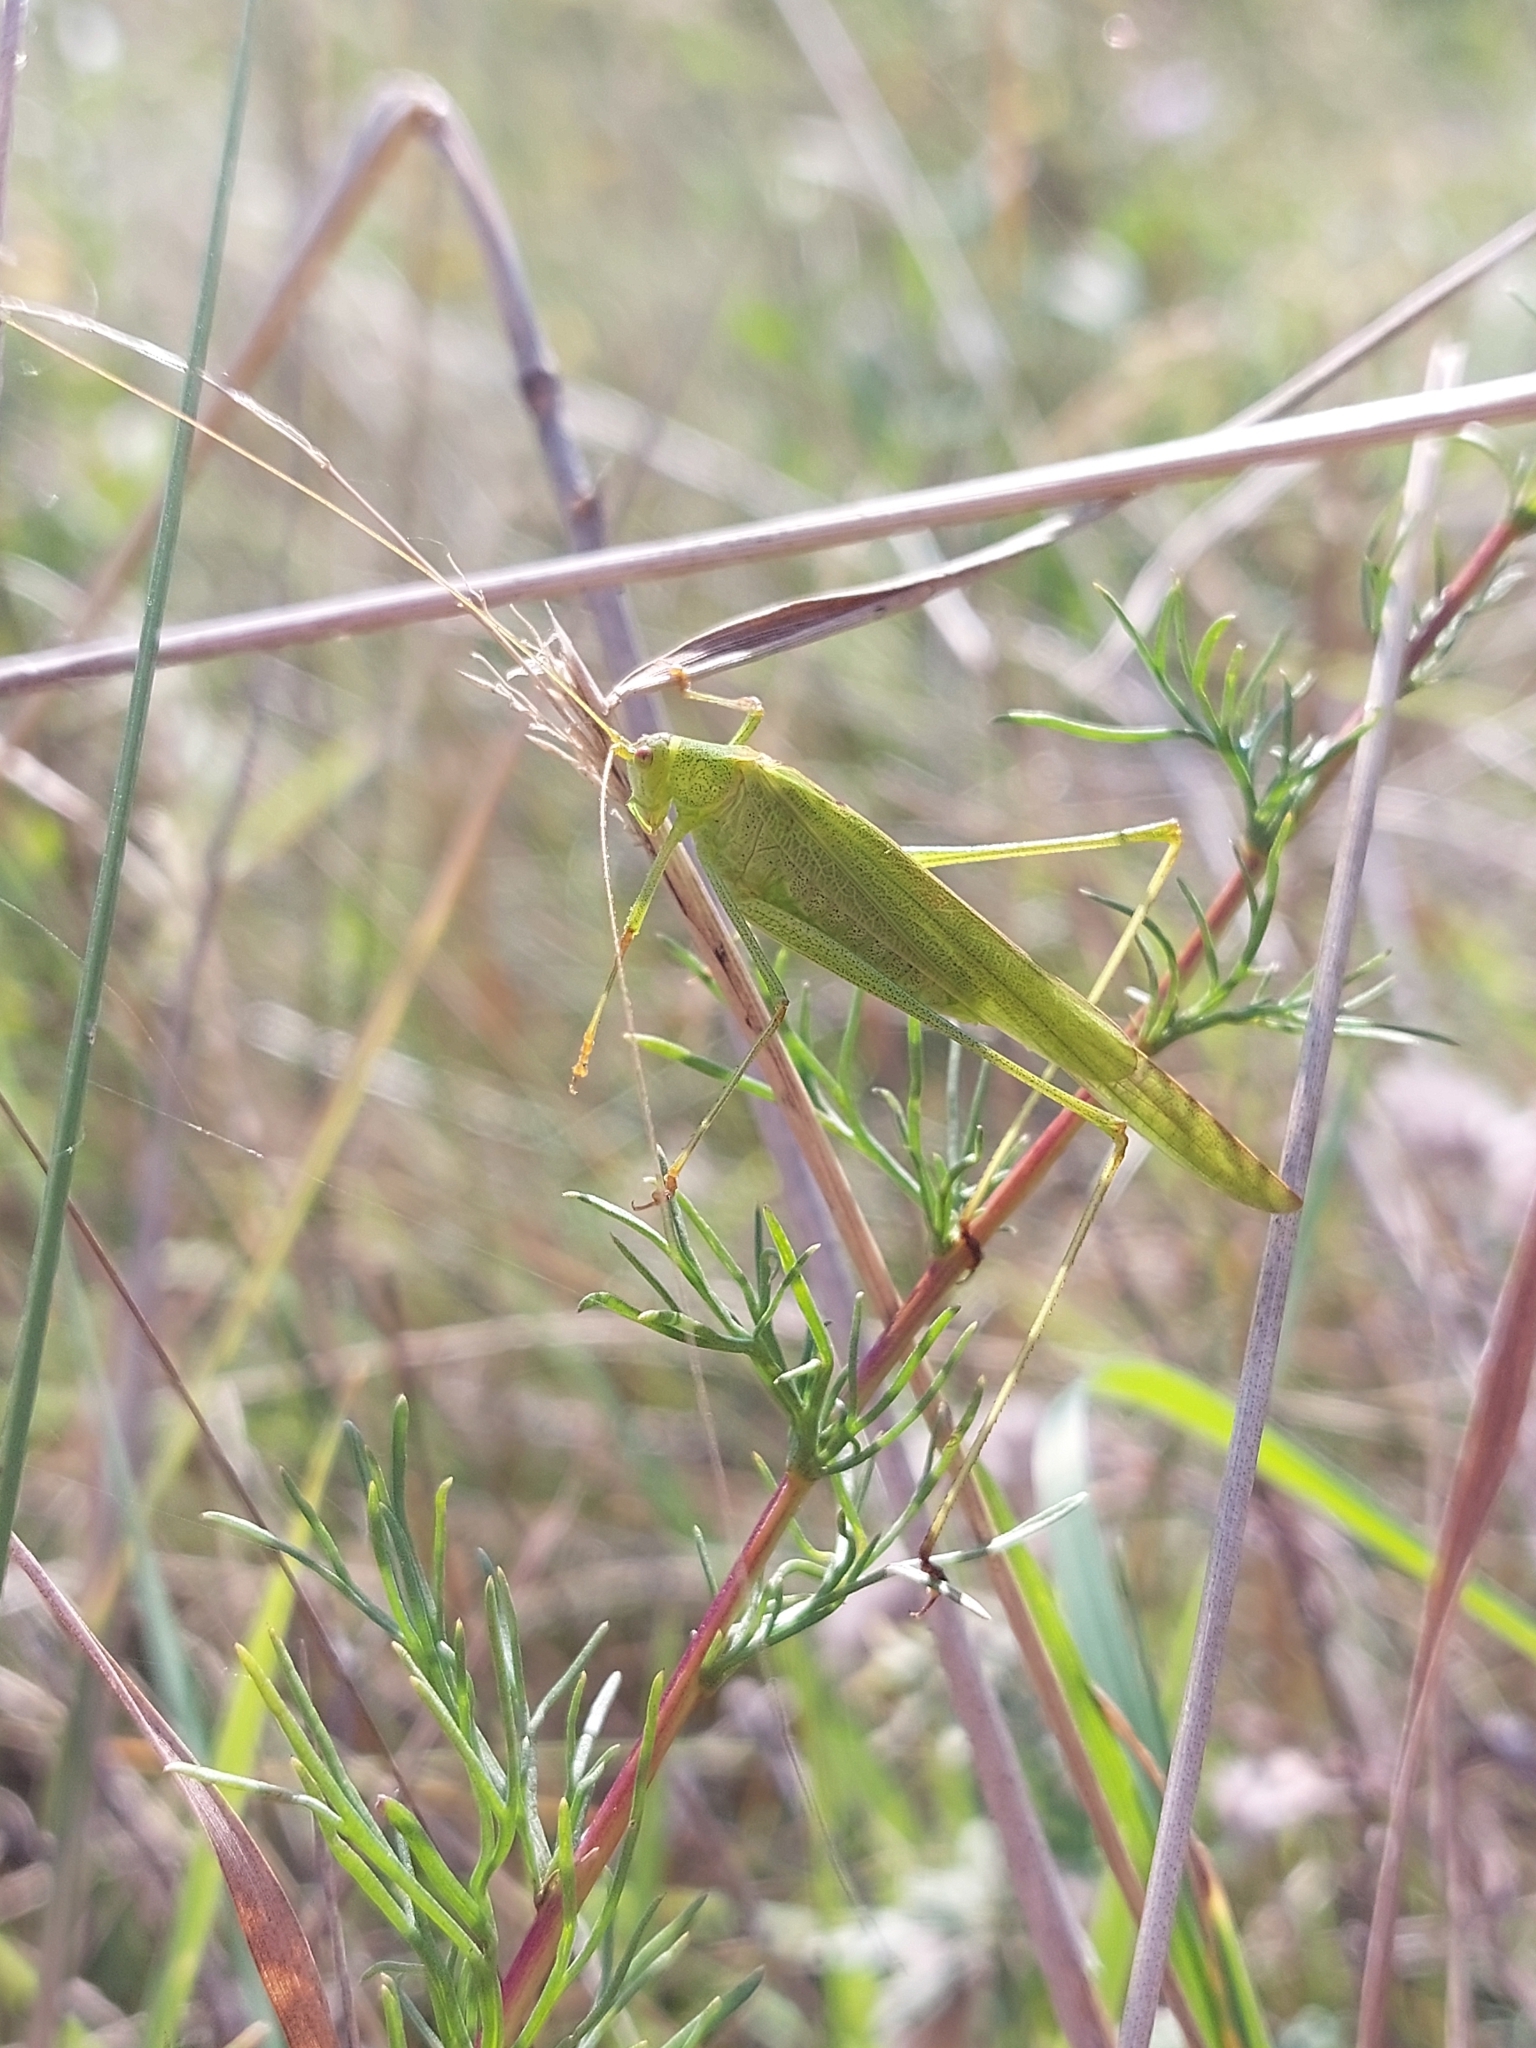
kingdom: Animalia
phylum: Arthropoda
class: Insecta
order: Orthoptera
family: Tettigoniidae
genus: Phaneroptera
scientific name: Phaneroptera falcata
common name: Sickle-bearing bush-cricket
